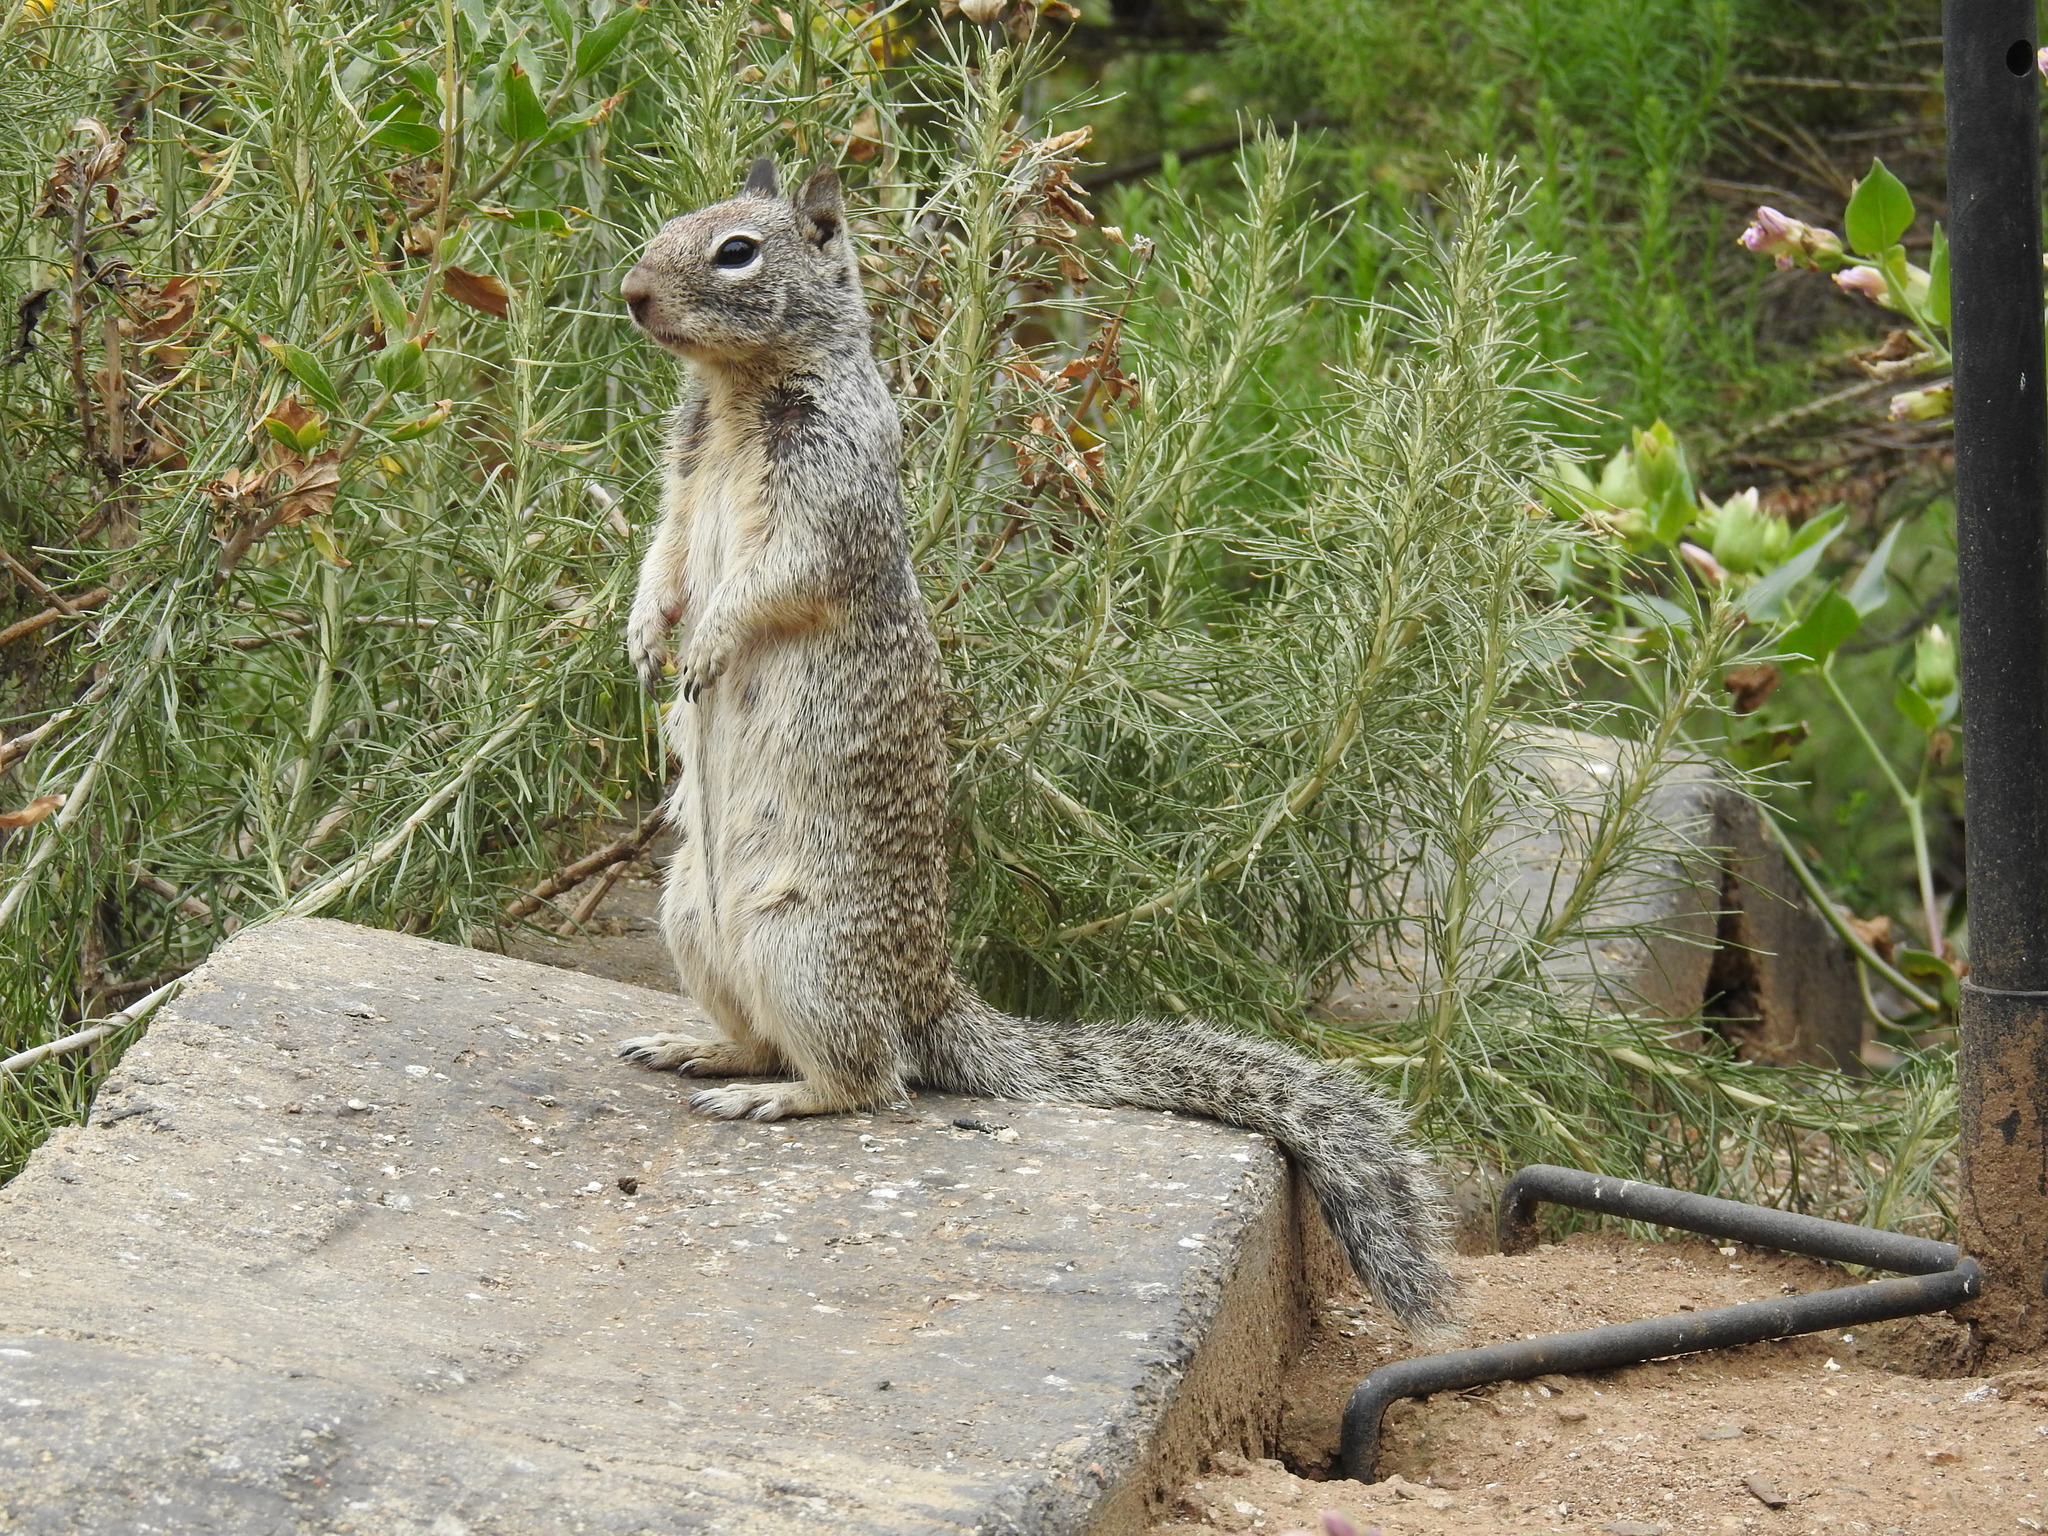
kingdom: Animalia
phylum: Chordata
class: Mammalia
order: Rodentia
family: Sciuridae
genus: Otospermophilus
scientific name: Otospermophilus beecheyi
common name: California ground squirrel
